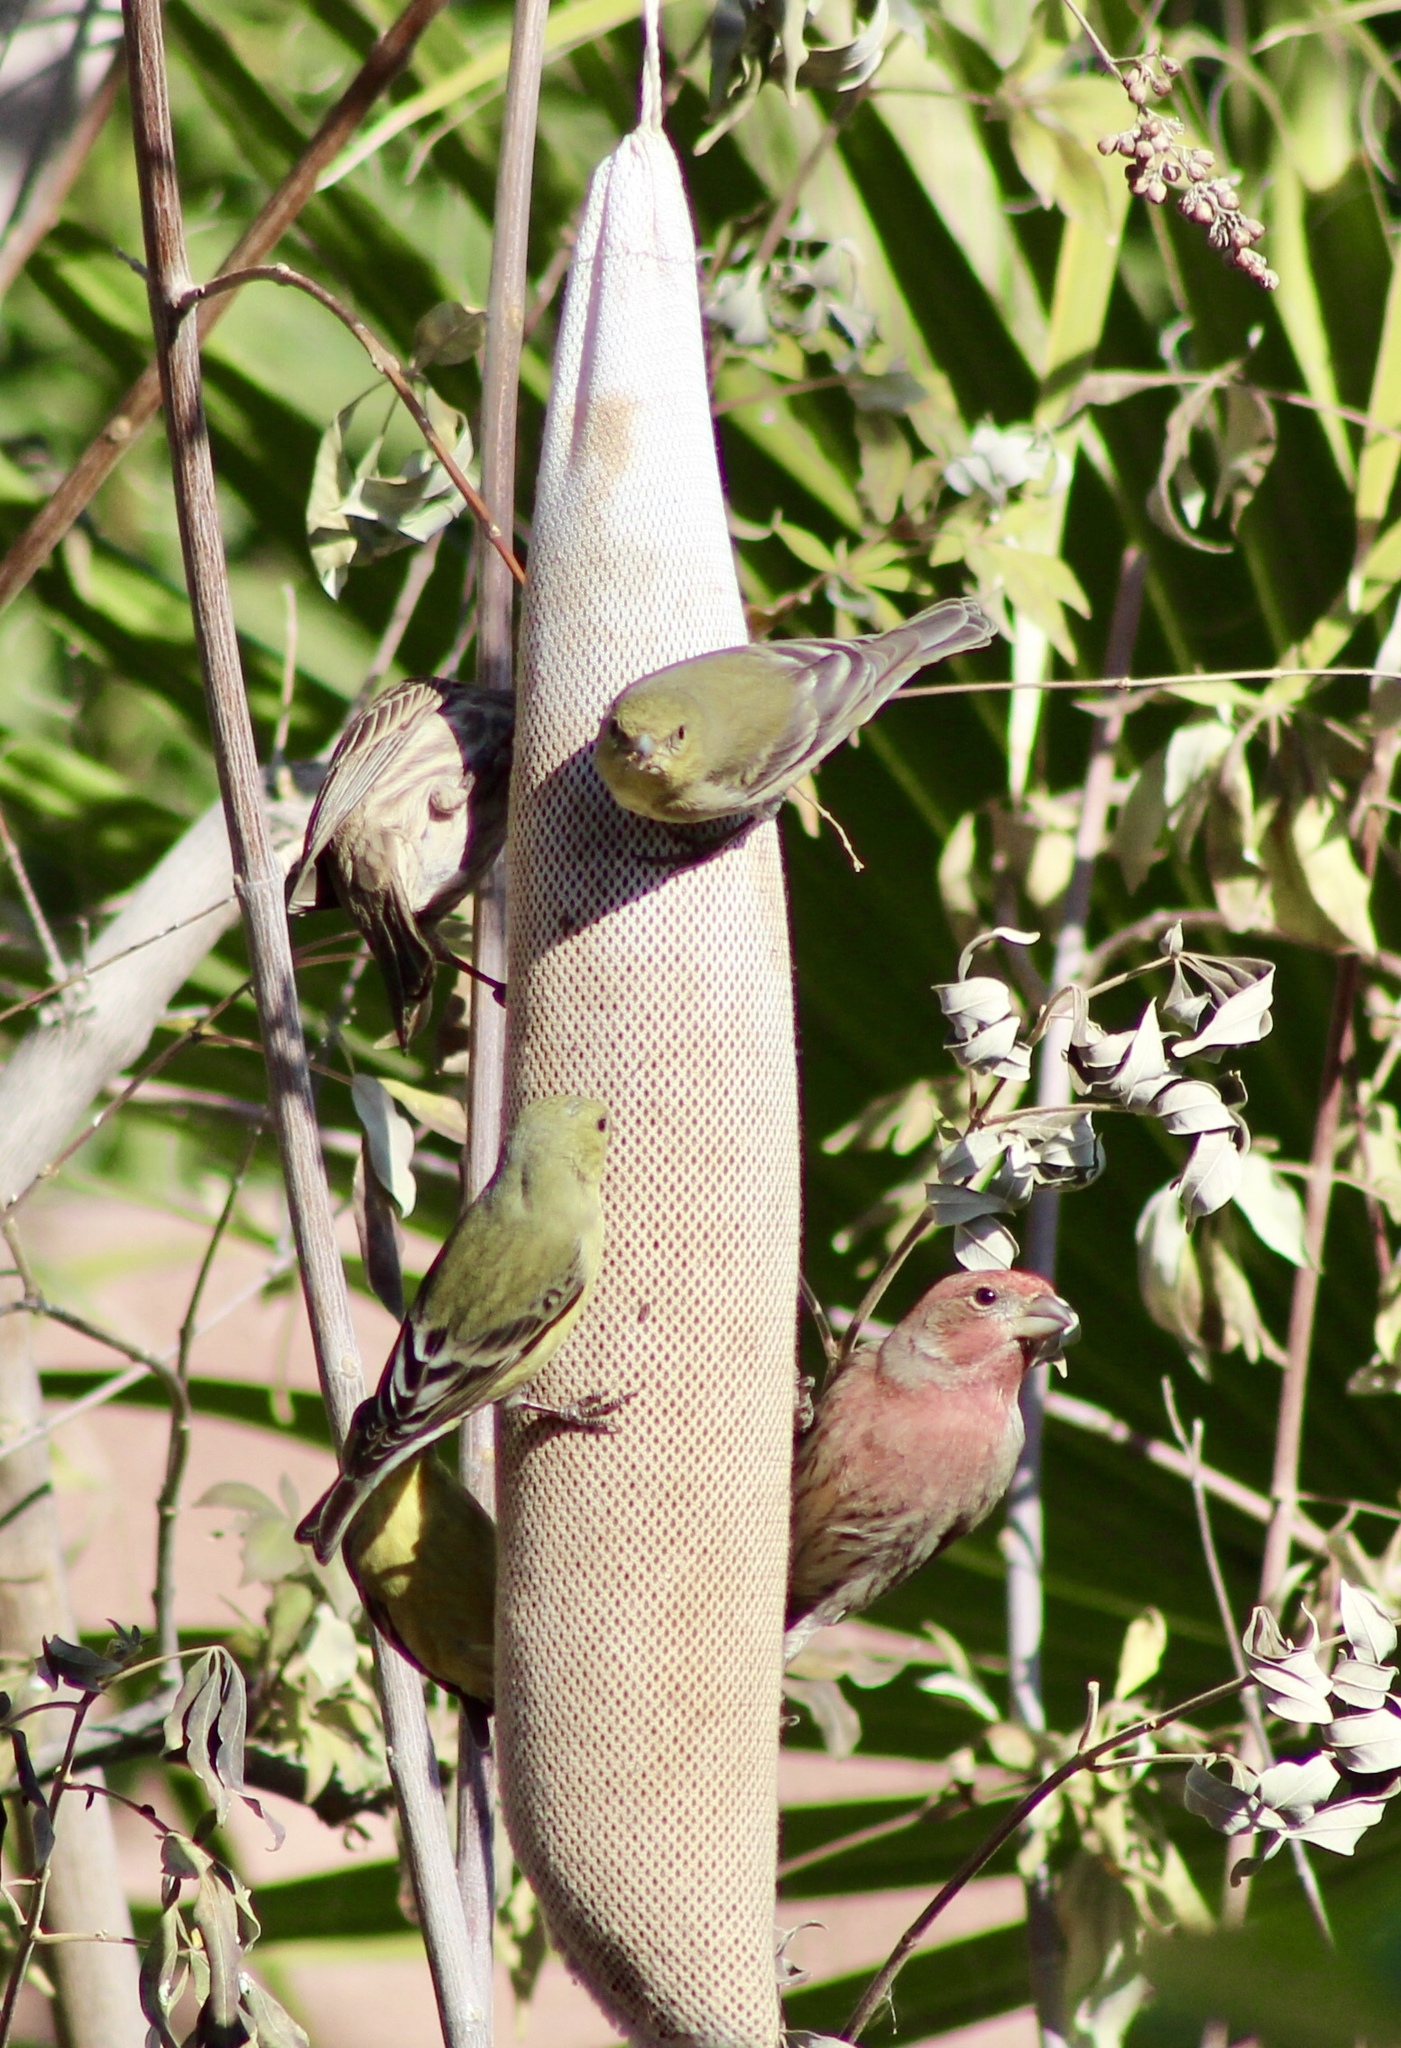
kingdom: Animalia
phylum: Chordata
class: Aves
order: Passeriformes
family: Fringillidae
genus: Spinus
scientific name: Spinus psaltria
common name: Lesser goldfinch
